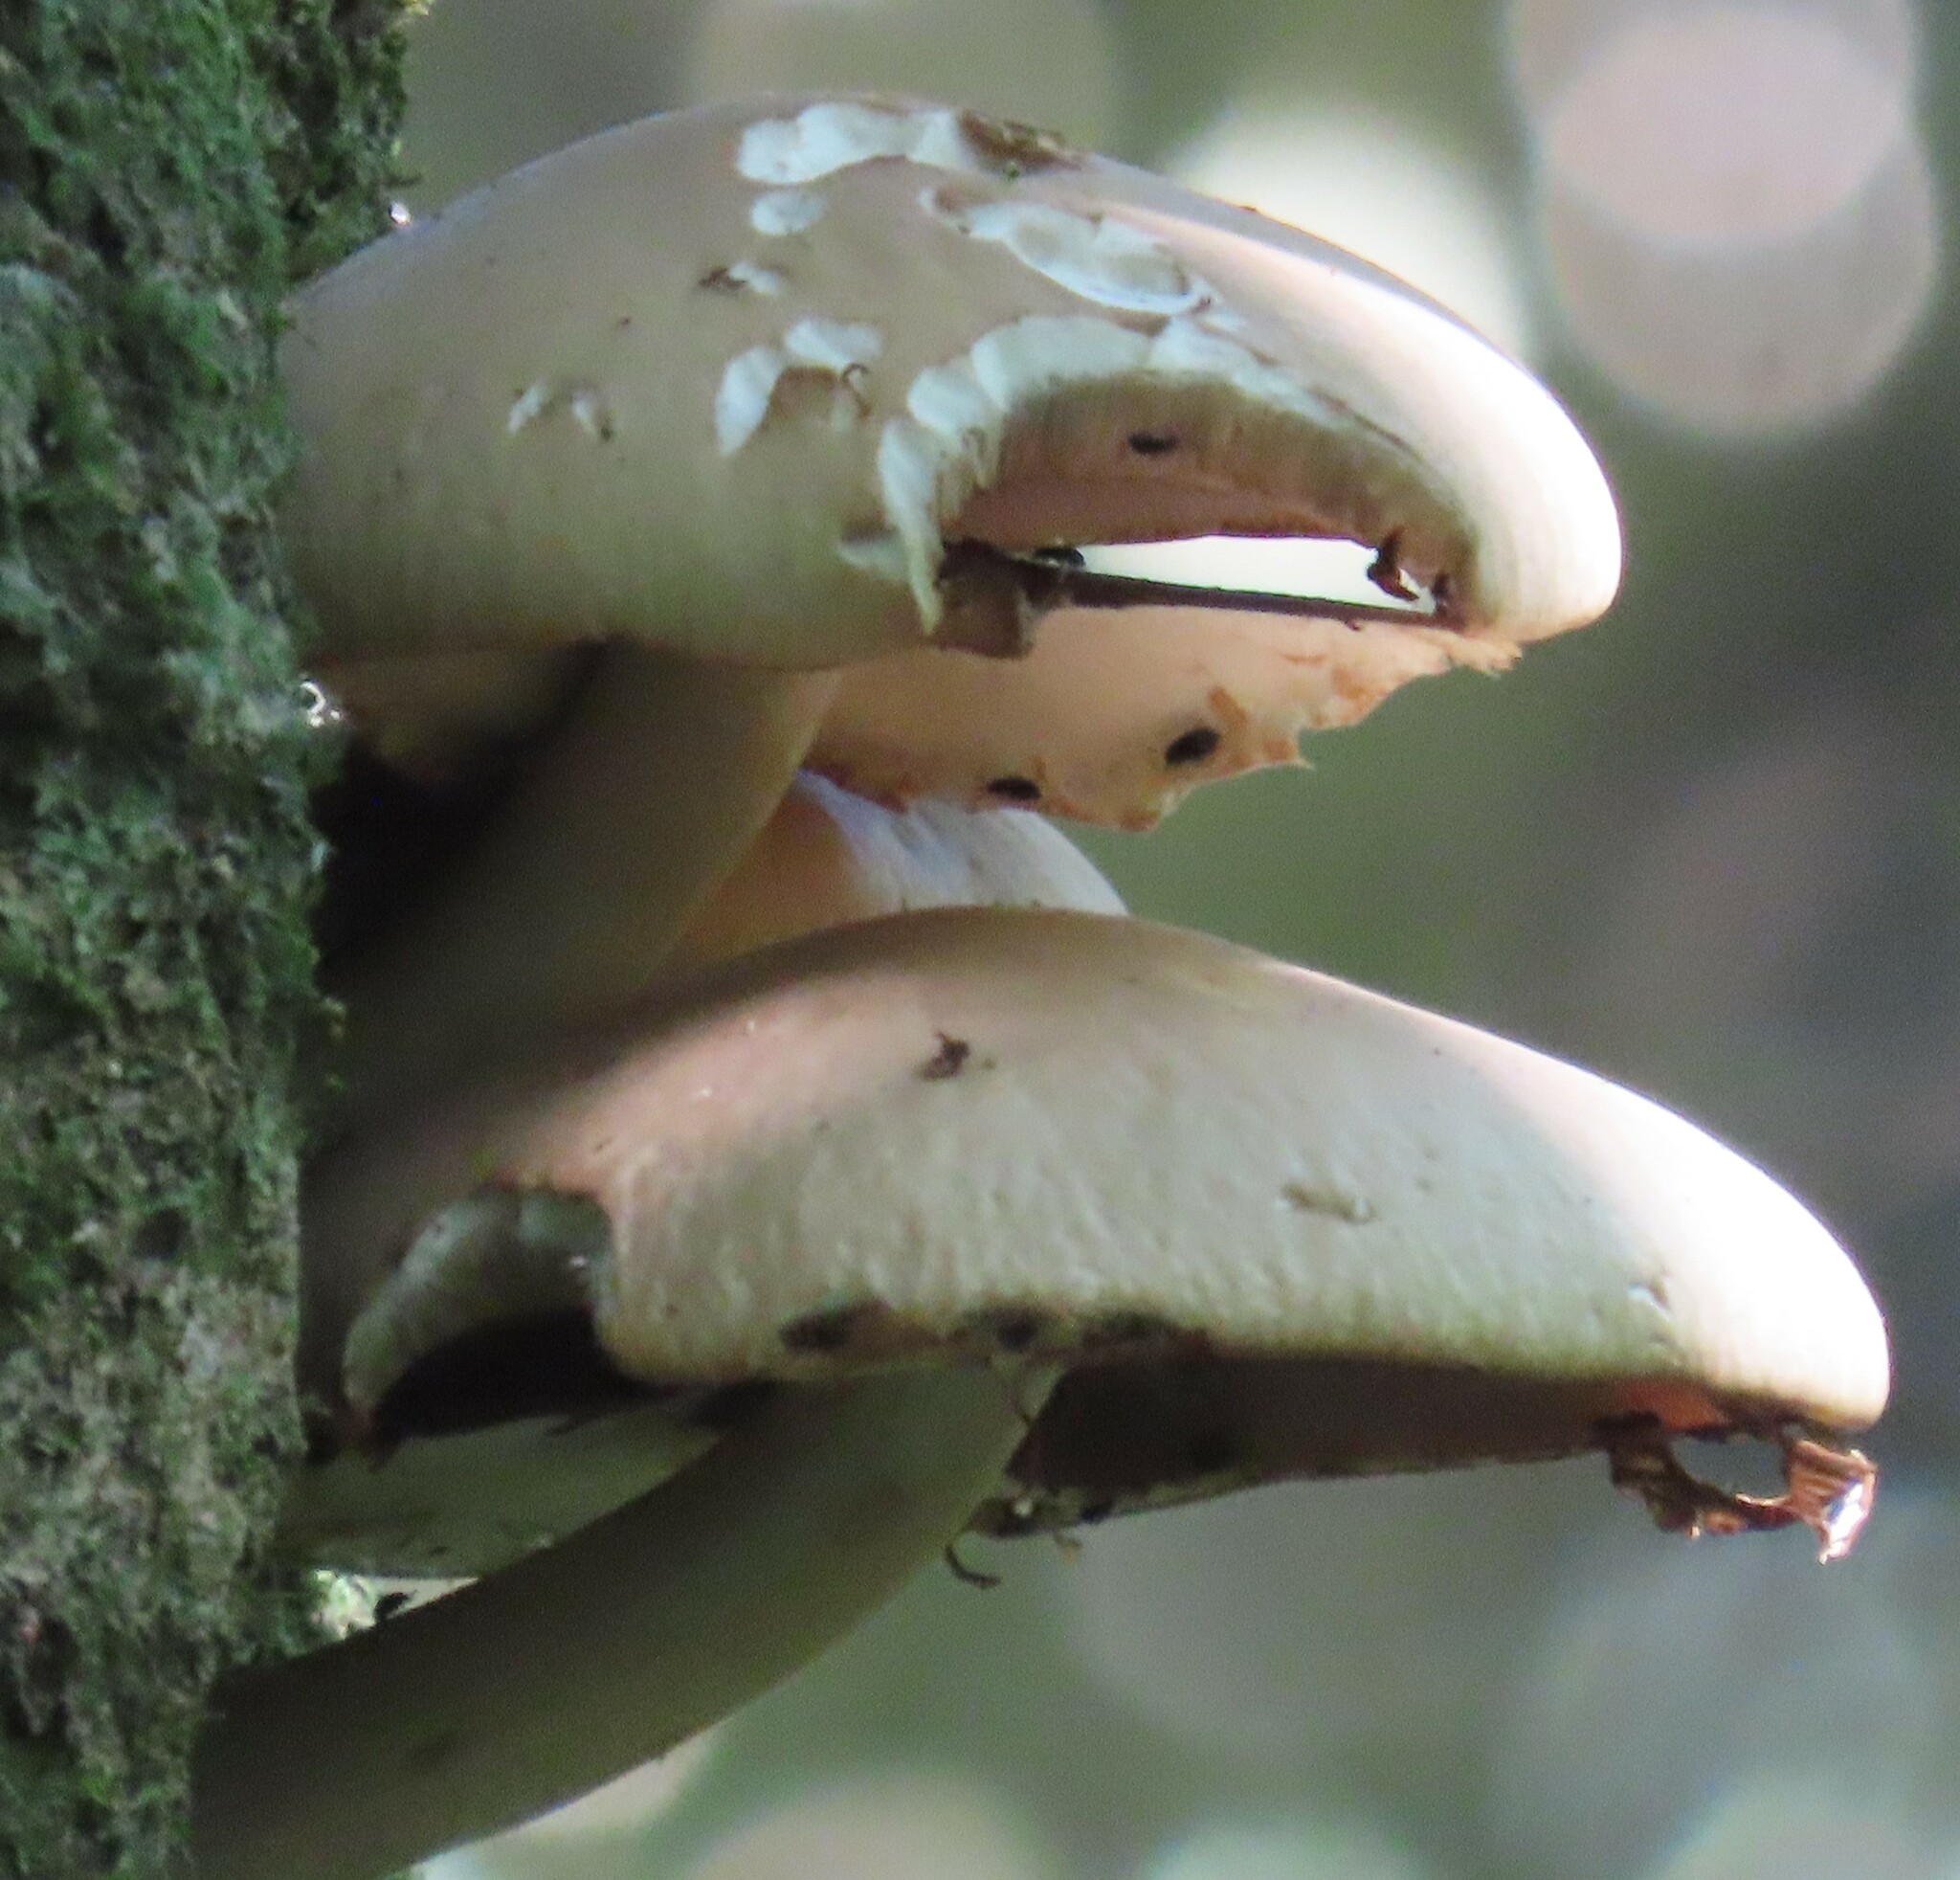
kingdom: Fungi
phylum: Basidiomycota
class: Agaricomycetes
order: Agaricales
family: Tubariaceae
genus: Cyclocybe
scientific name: Cyclocybe parasitica
